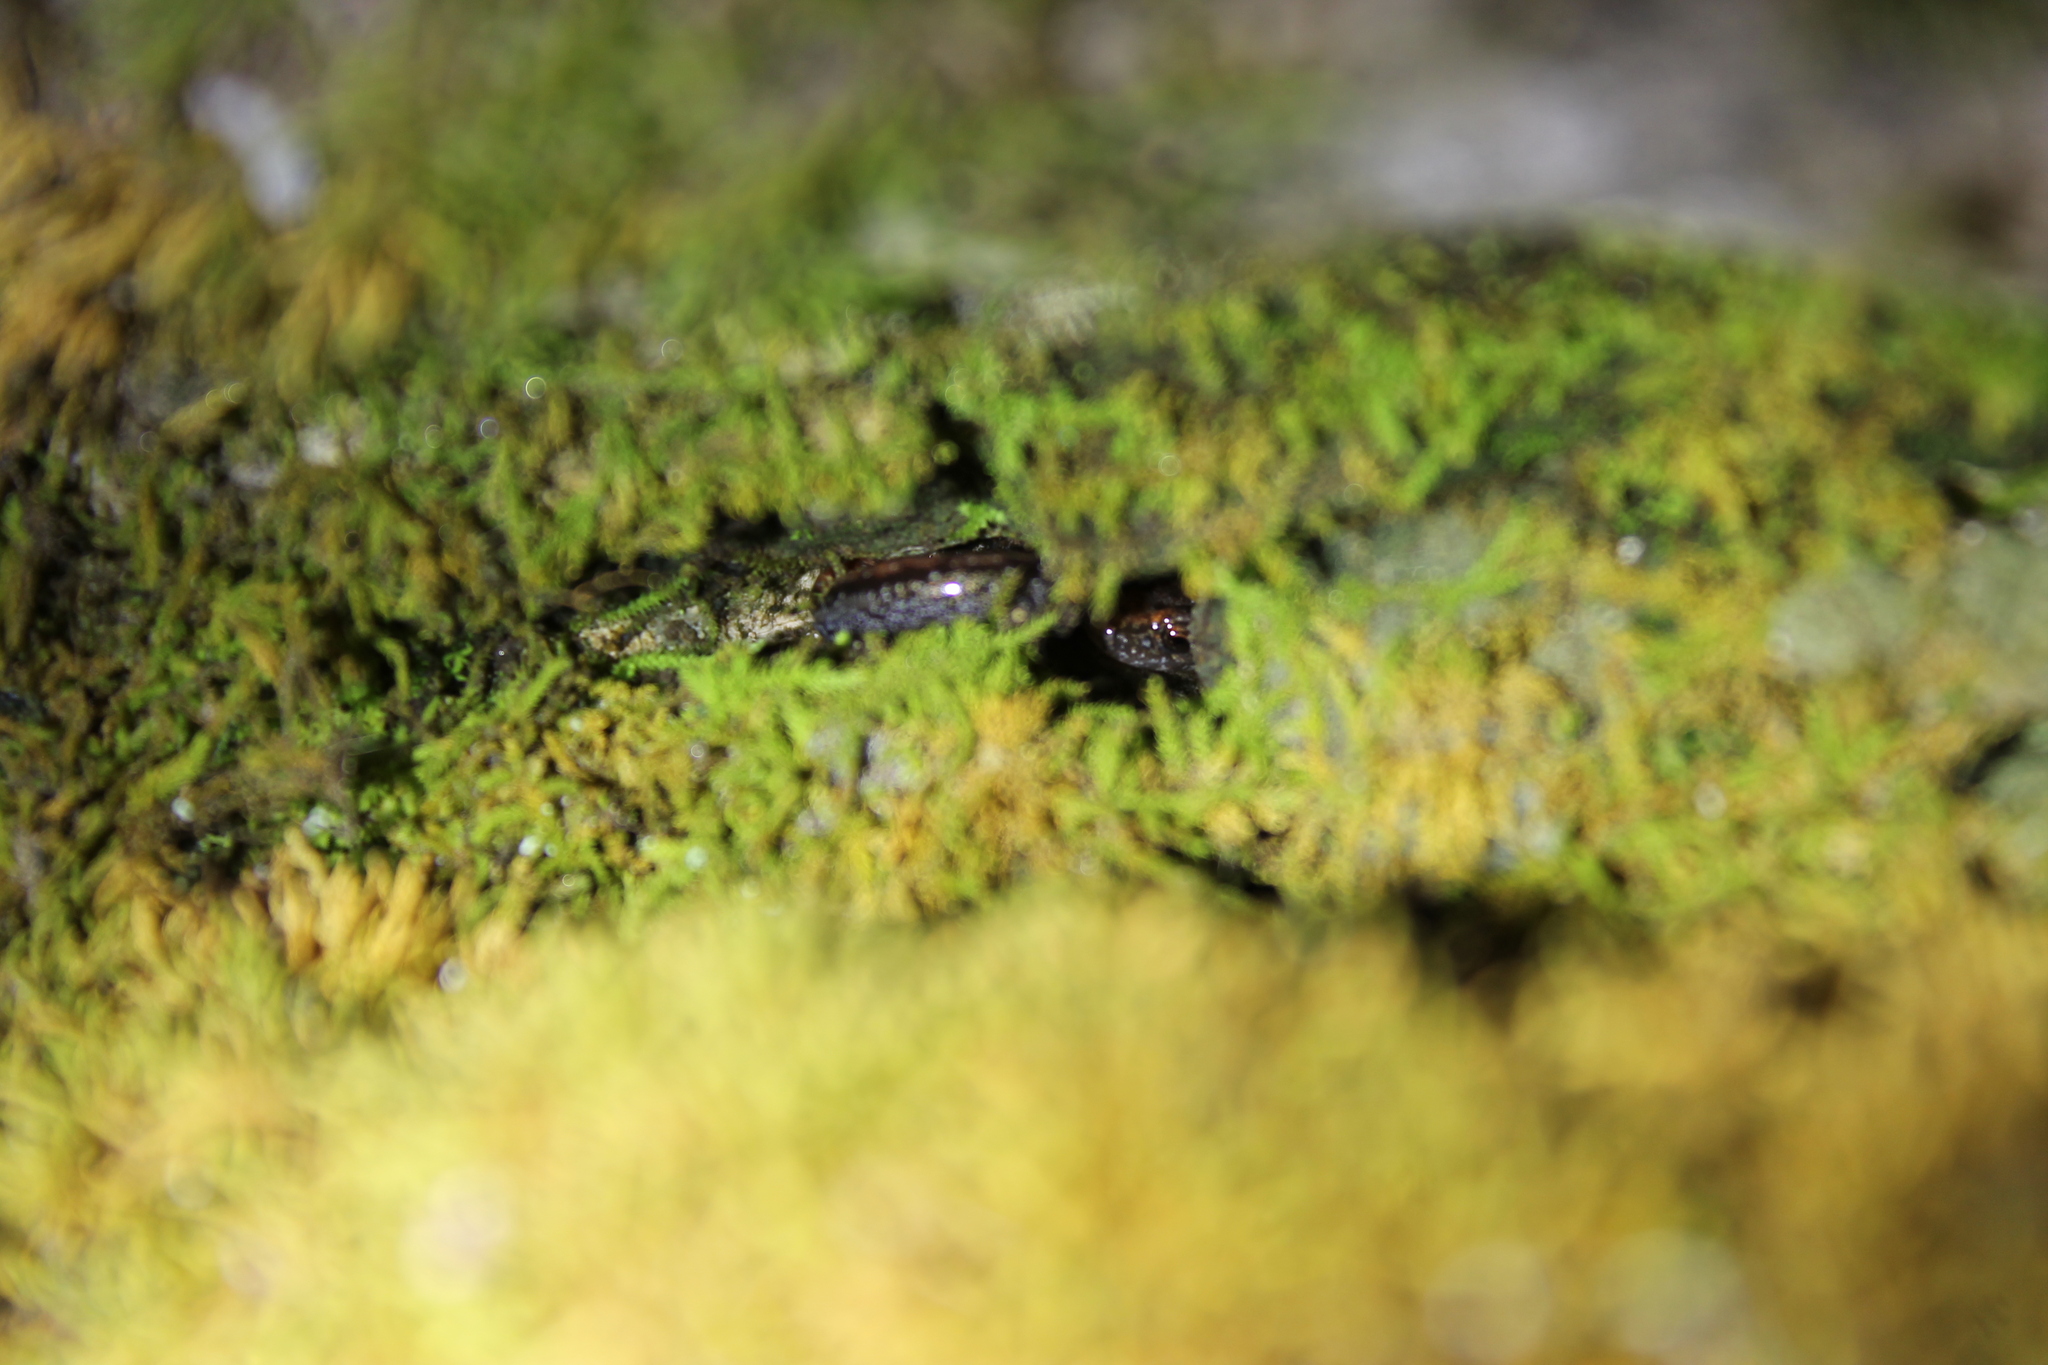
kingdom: Animalia
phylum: Chordata
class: Amphibia
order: Caudata
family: Plethodontidae
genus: Plethodon
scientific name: Plethodon dorsalis
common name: Northern zigzag salamander
